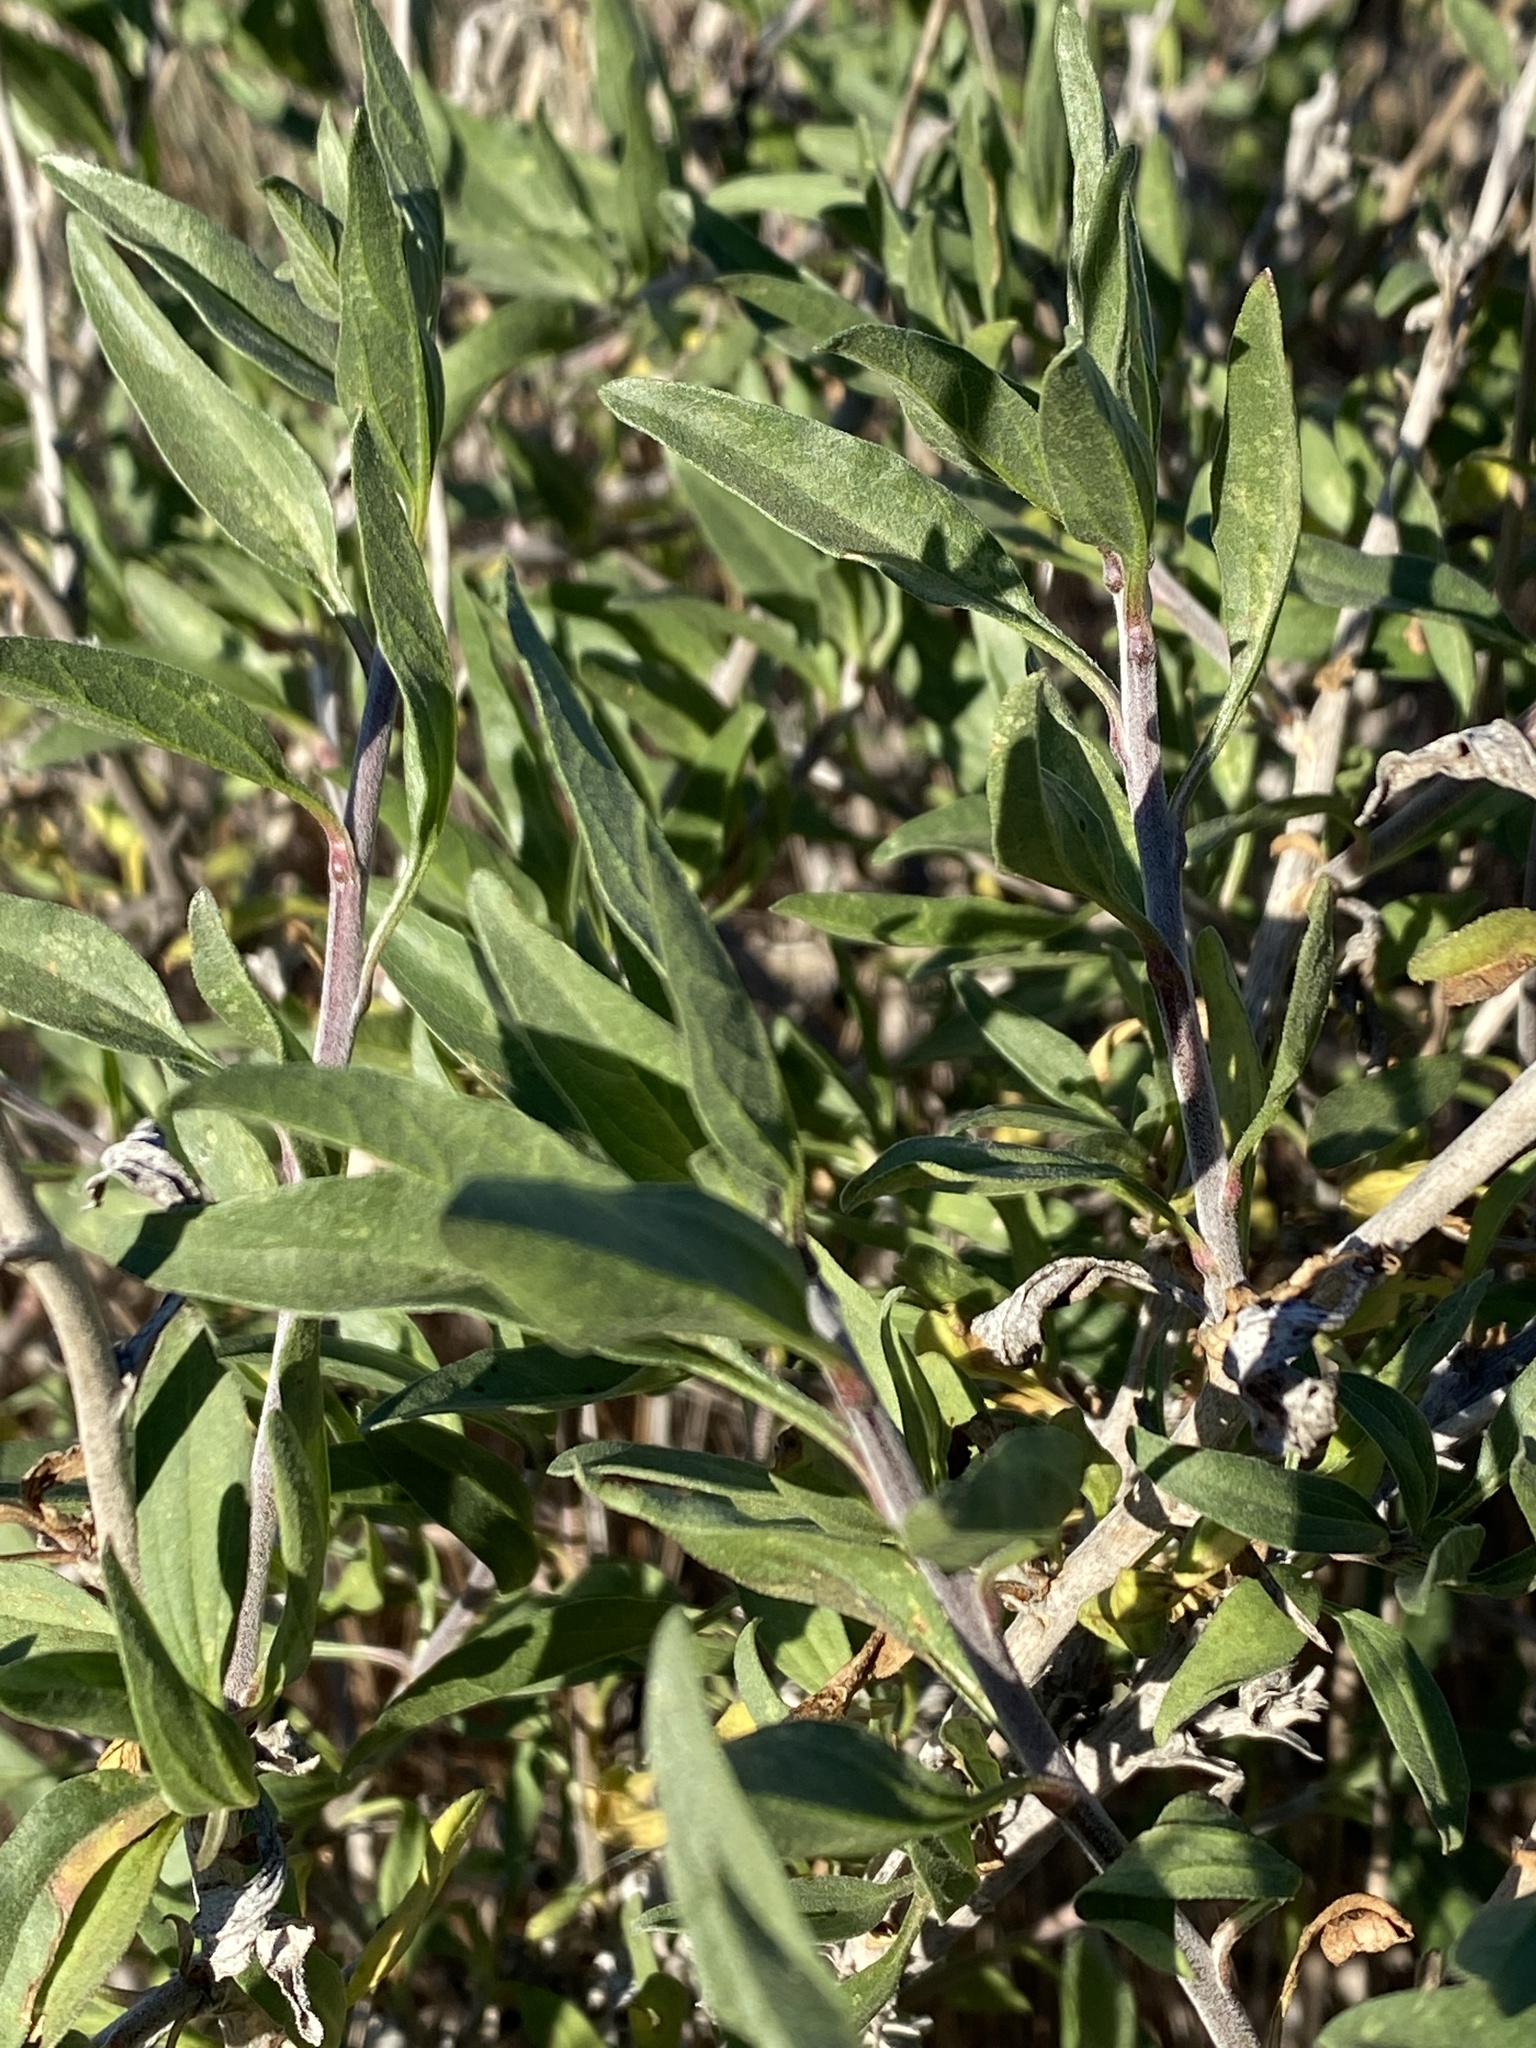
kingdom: Plantae
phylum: Tracheophyta
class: Magnoliopsida
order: Asterales
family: Asteraceae
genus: Encelia
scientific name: Encelia californica
